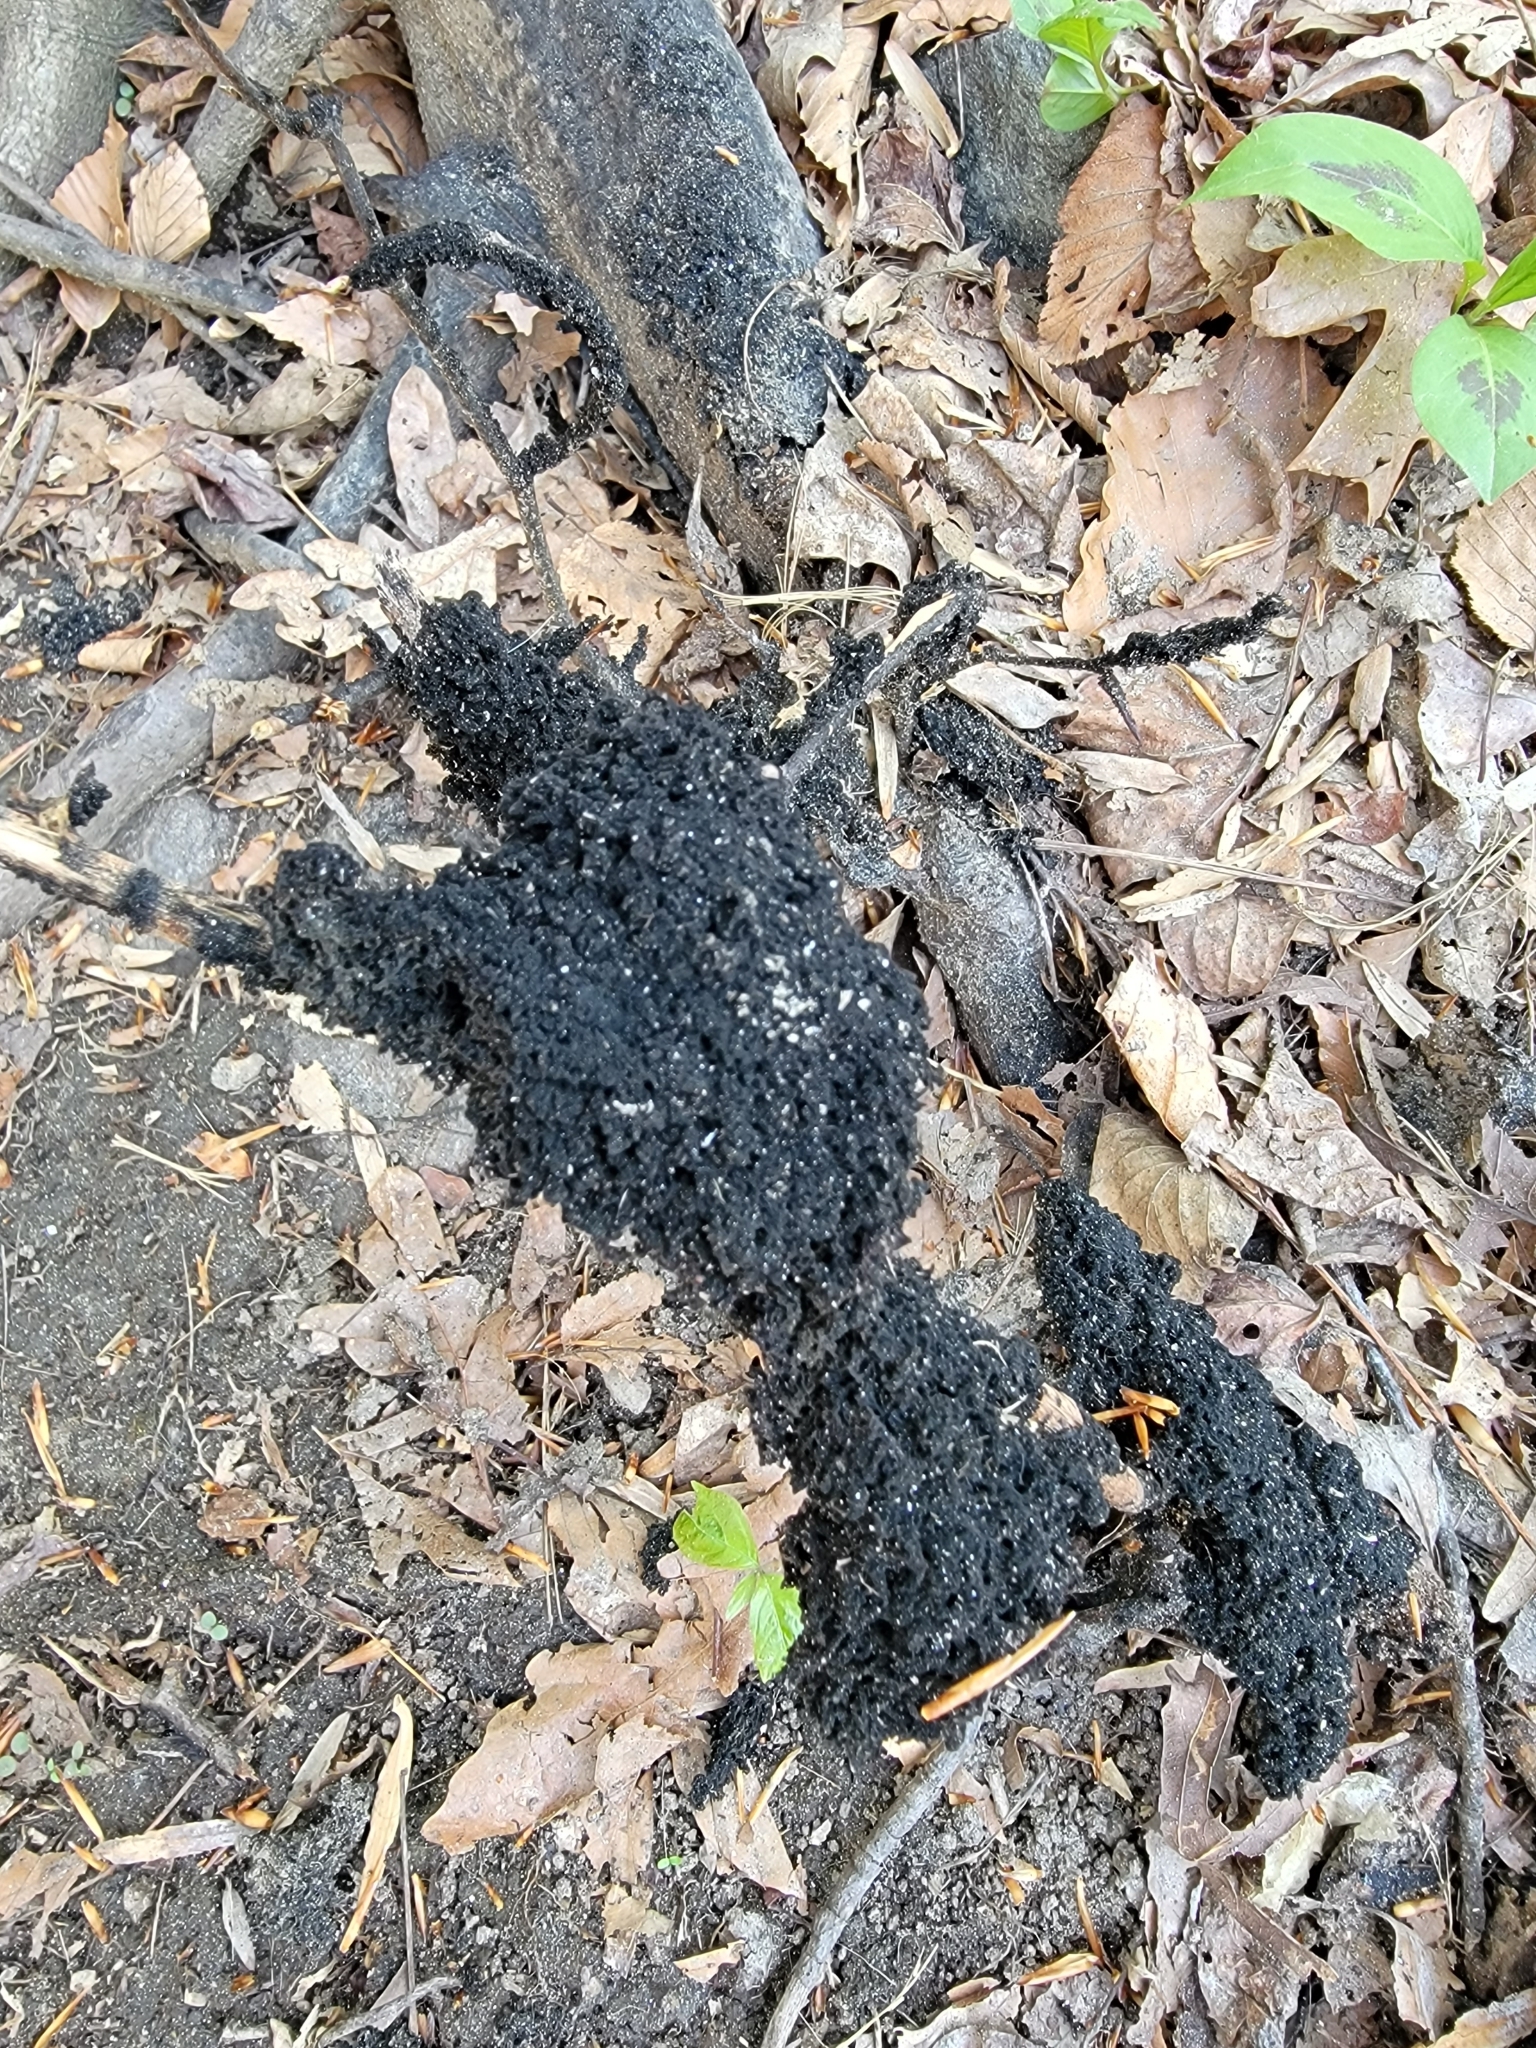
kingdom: Fungi
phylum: Ascomycota
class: Dothideomycetes
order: Capnodiales
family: Capnodiaceae
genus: Scorias
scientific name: Scorias spongiosa
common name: Black sooty mold
